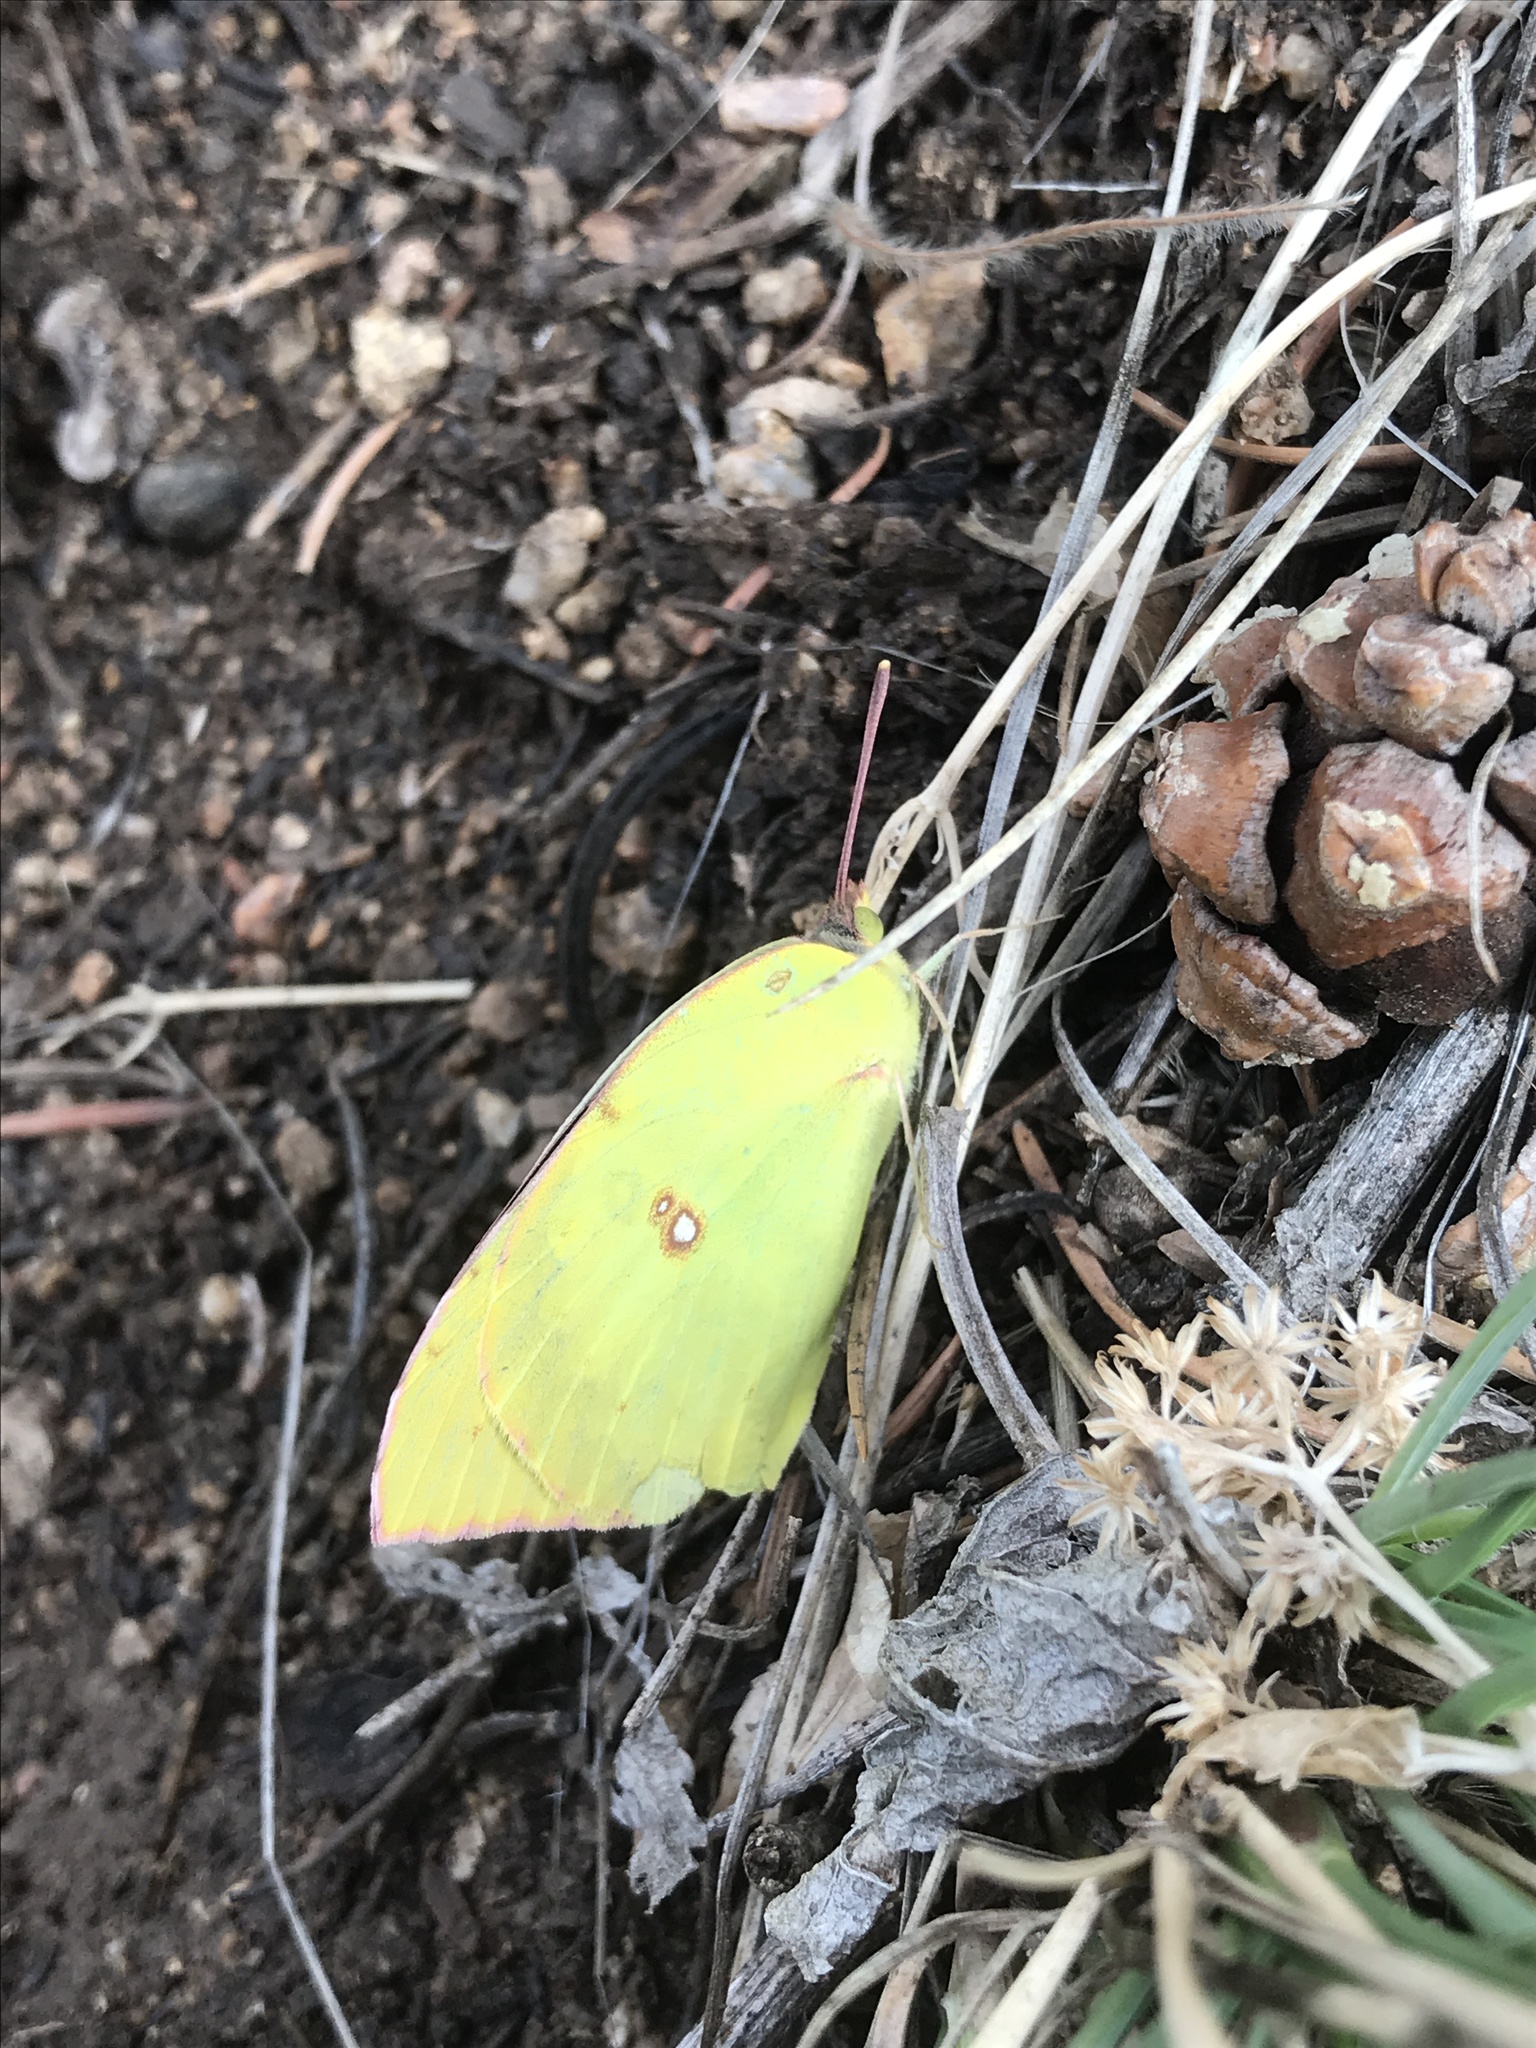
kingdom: Animalia
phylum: Arthropoda
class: Insecta
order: Lepidoptera
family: Pieridae
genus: Zerene
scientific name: Zerene cesonia
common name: Southern dogface
